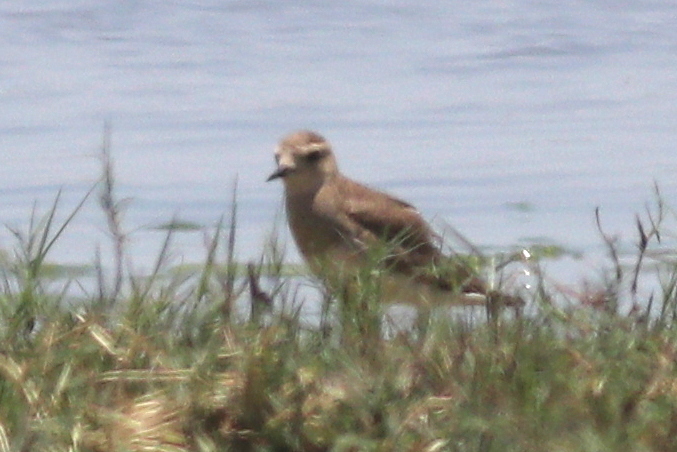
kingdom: Animalia
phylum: Chordata
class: Aves
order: Charadriiformes
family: Charadriidae
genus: Charadrius
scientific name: Charadrius asiaticus
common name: Caspian plover
